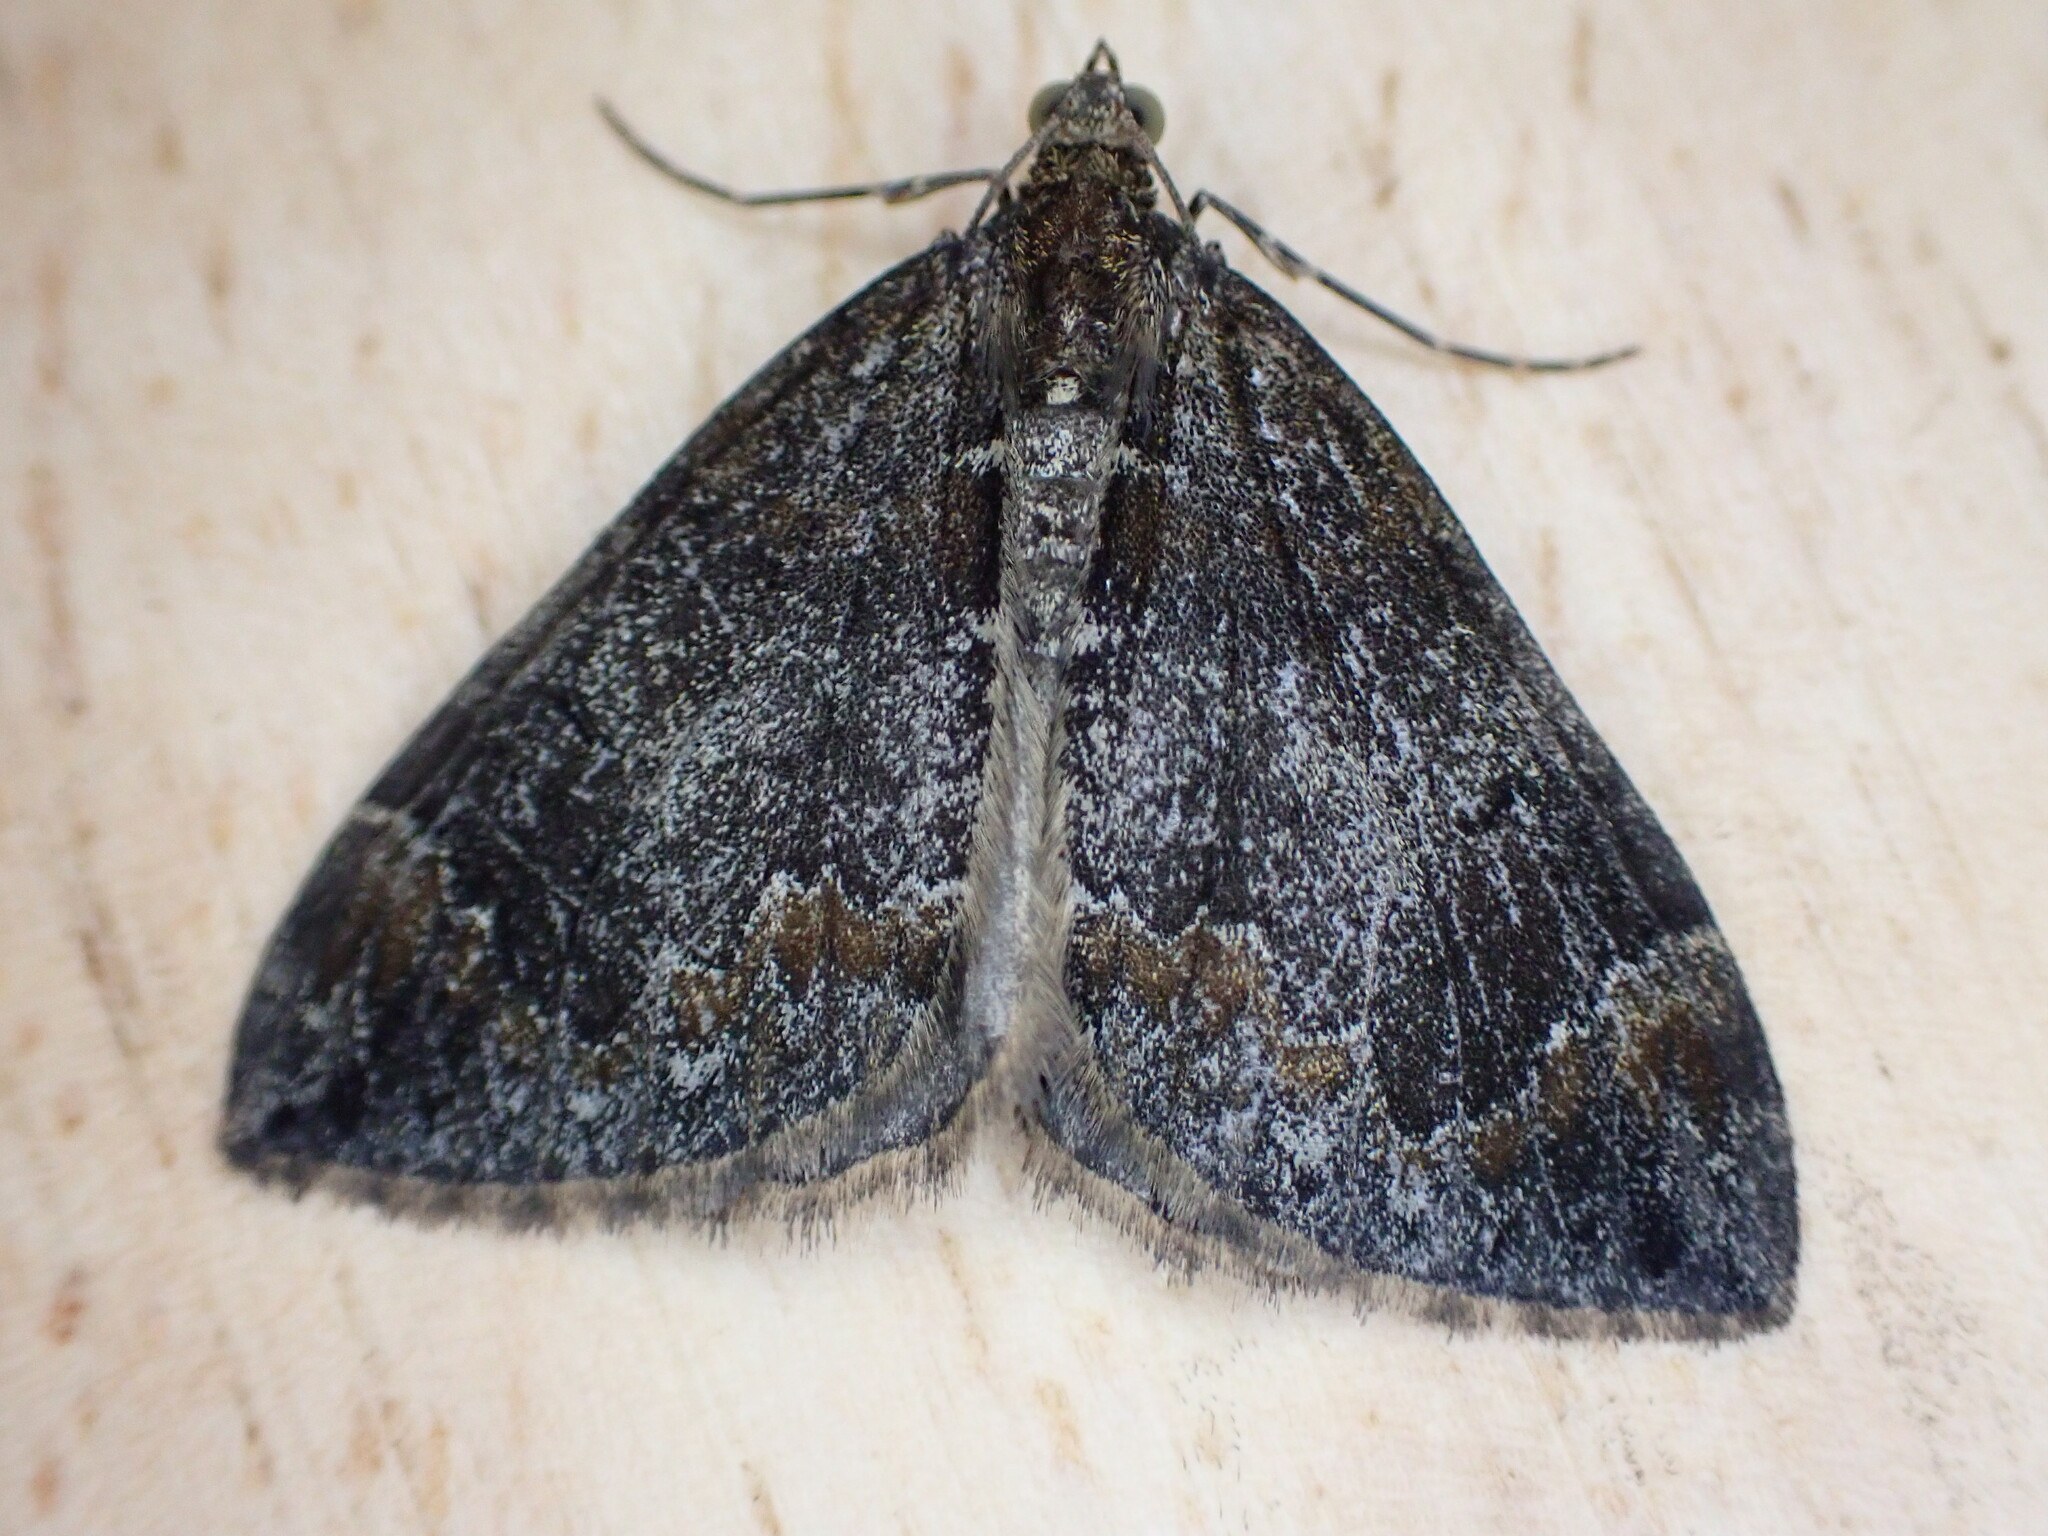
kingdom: Animalia
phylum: Arthropoda
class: Insecta
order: Lepidoptera
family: Geometridae
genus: Dysstroma
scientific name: Dysstroma truncata
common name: Common marbled carpet
